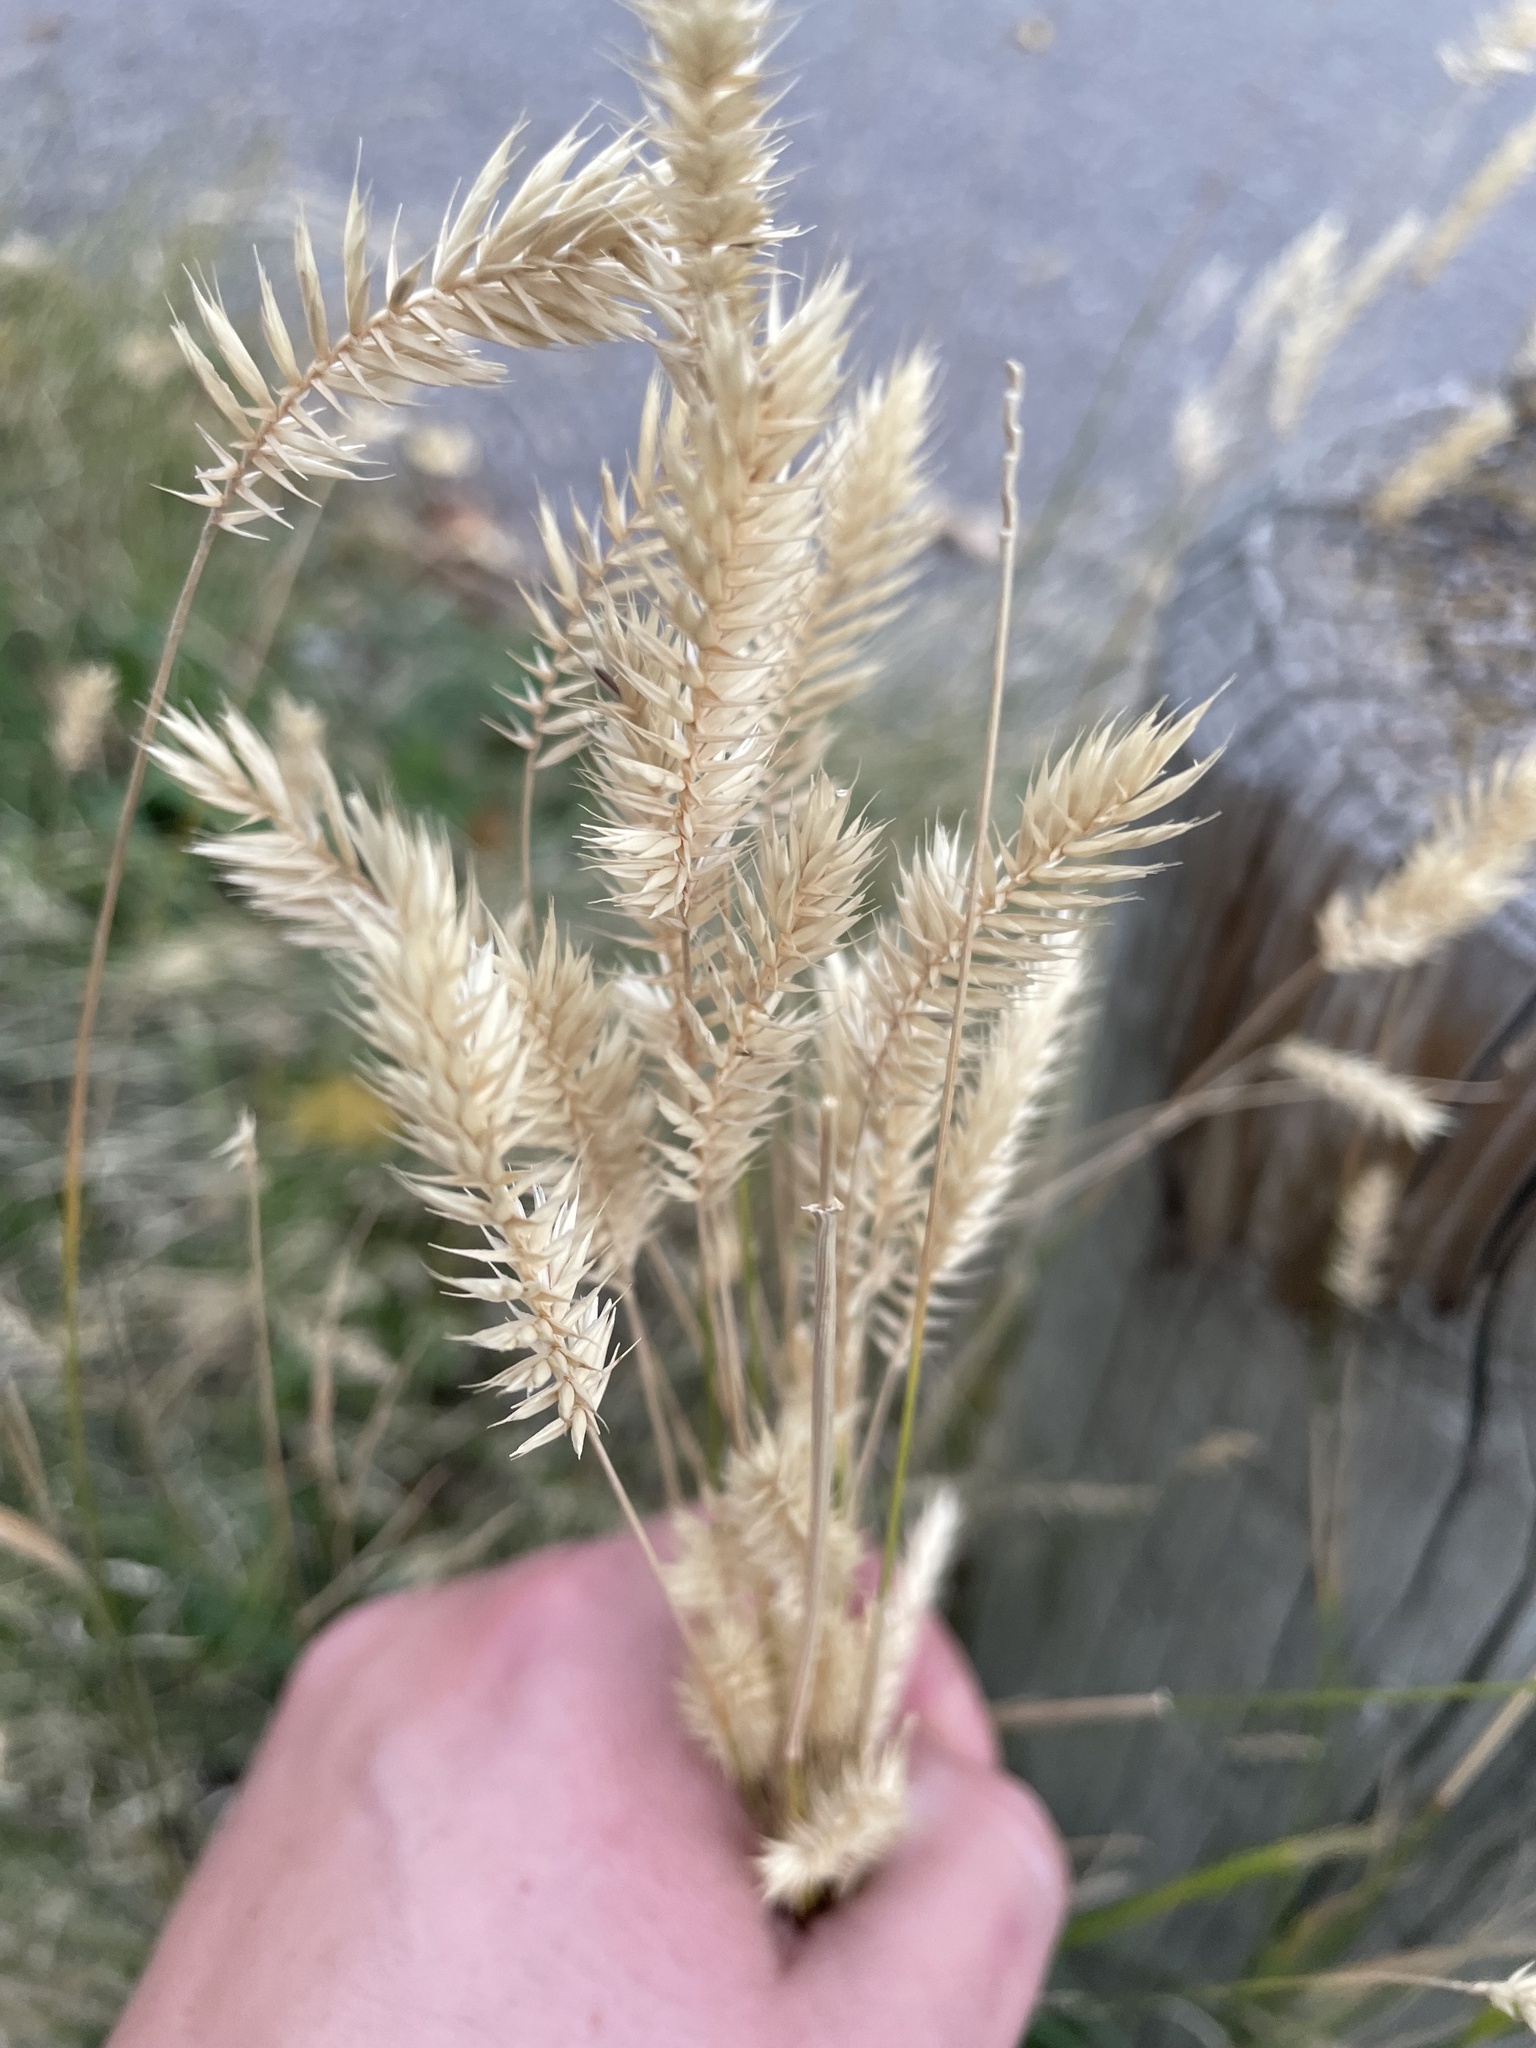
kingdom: Plantae
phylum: Tracheophyta
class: Liliopsida
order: Poales
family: Poaceae
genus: Agropyron
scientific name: Agropyron cristatum
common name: Crested wheatgrass
